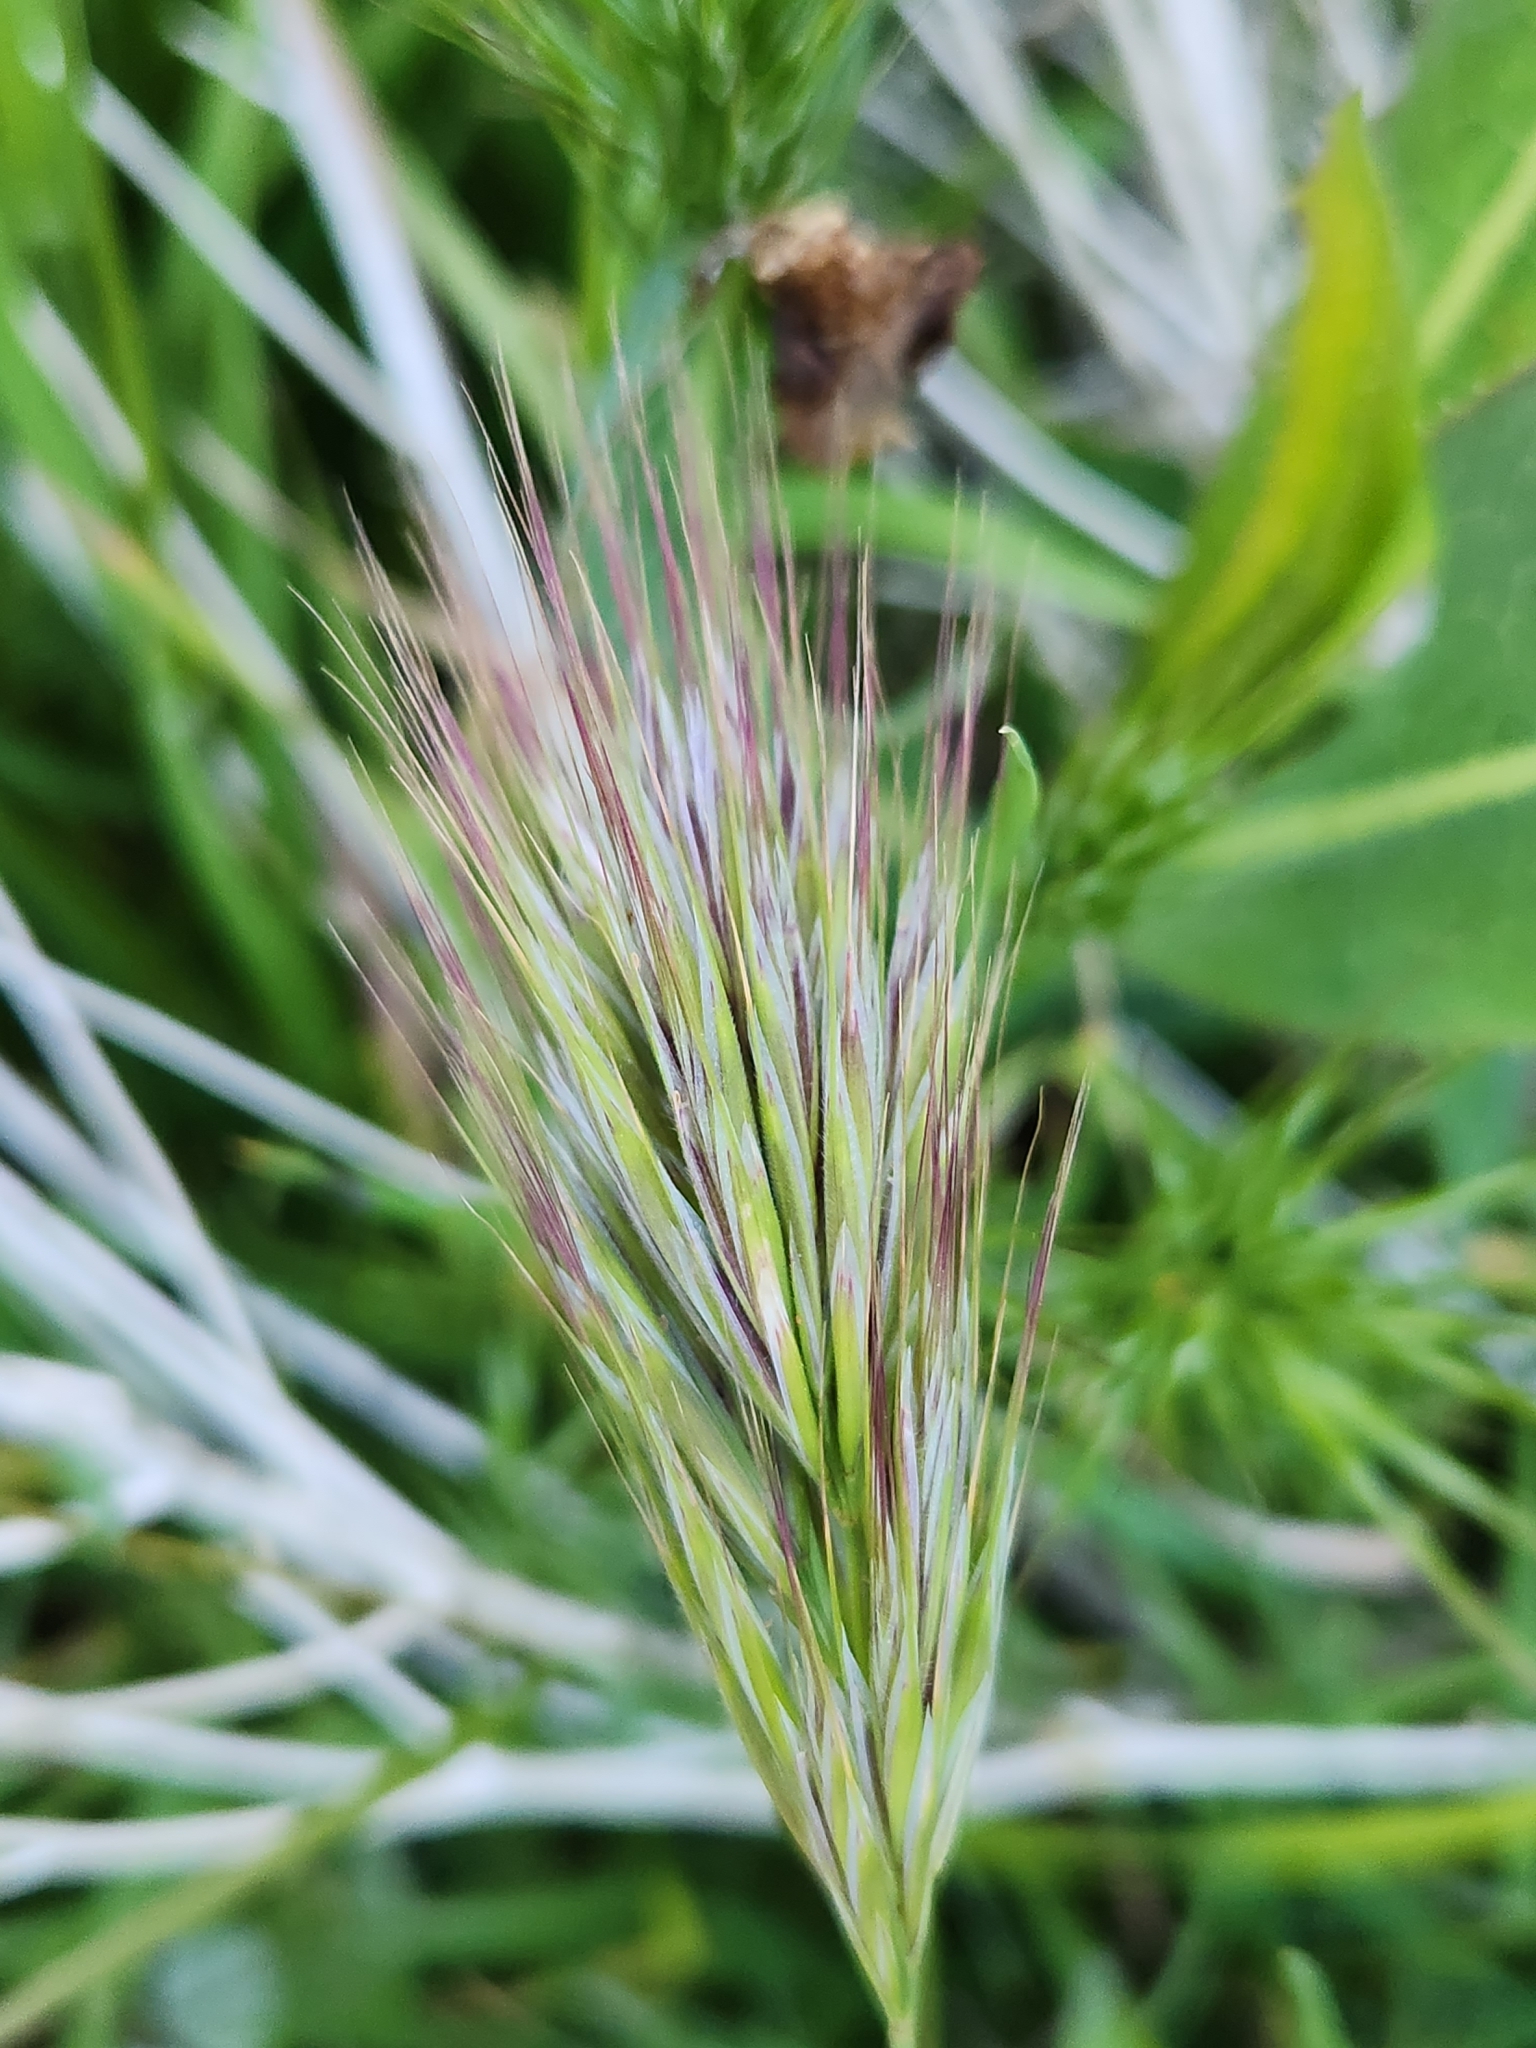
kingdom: Plantae
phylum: Tracheophyta
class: Liliopsida
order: Poales
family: Poaceae
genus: Bromus
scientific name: Bromus rubens
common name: Red brome
